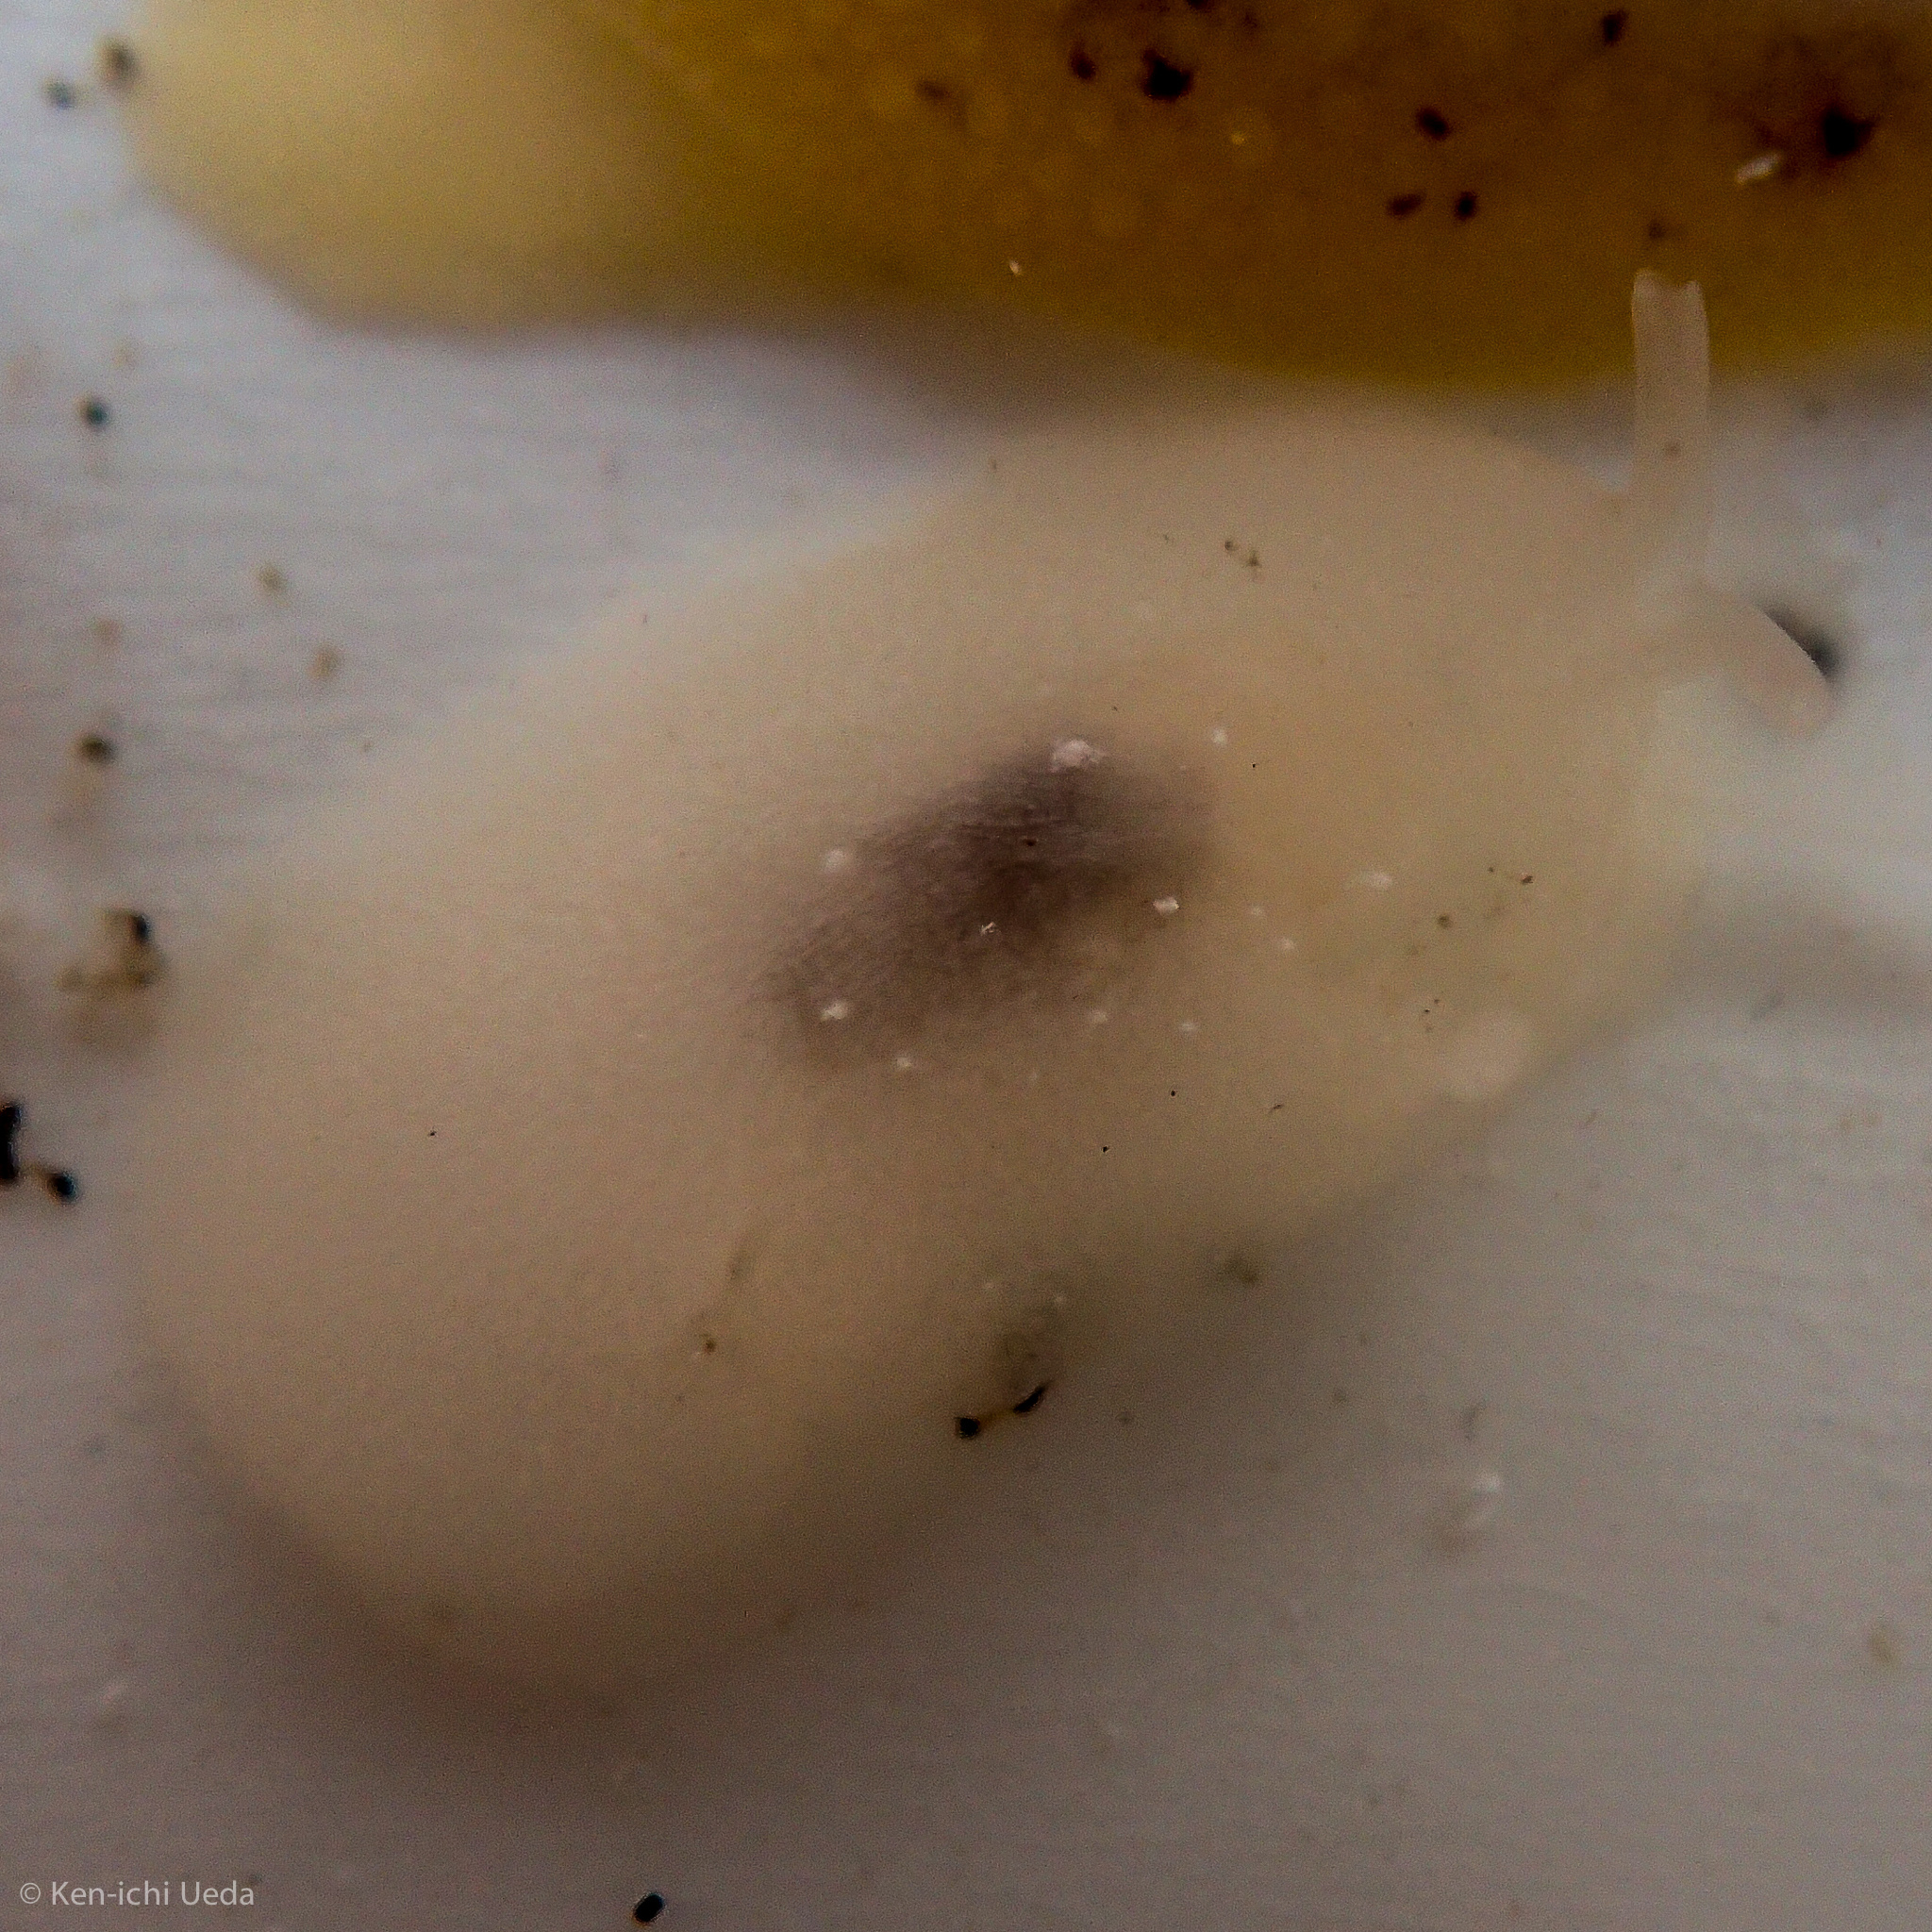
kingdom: Animalia
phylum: Mollusca
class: Gastropoda
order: Pleurobranchida
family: Pleurobranchidae
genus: Pleurehdera
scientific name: Pleurehdera
